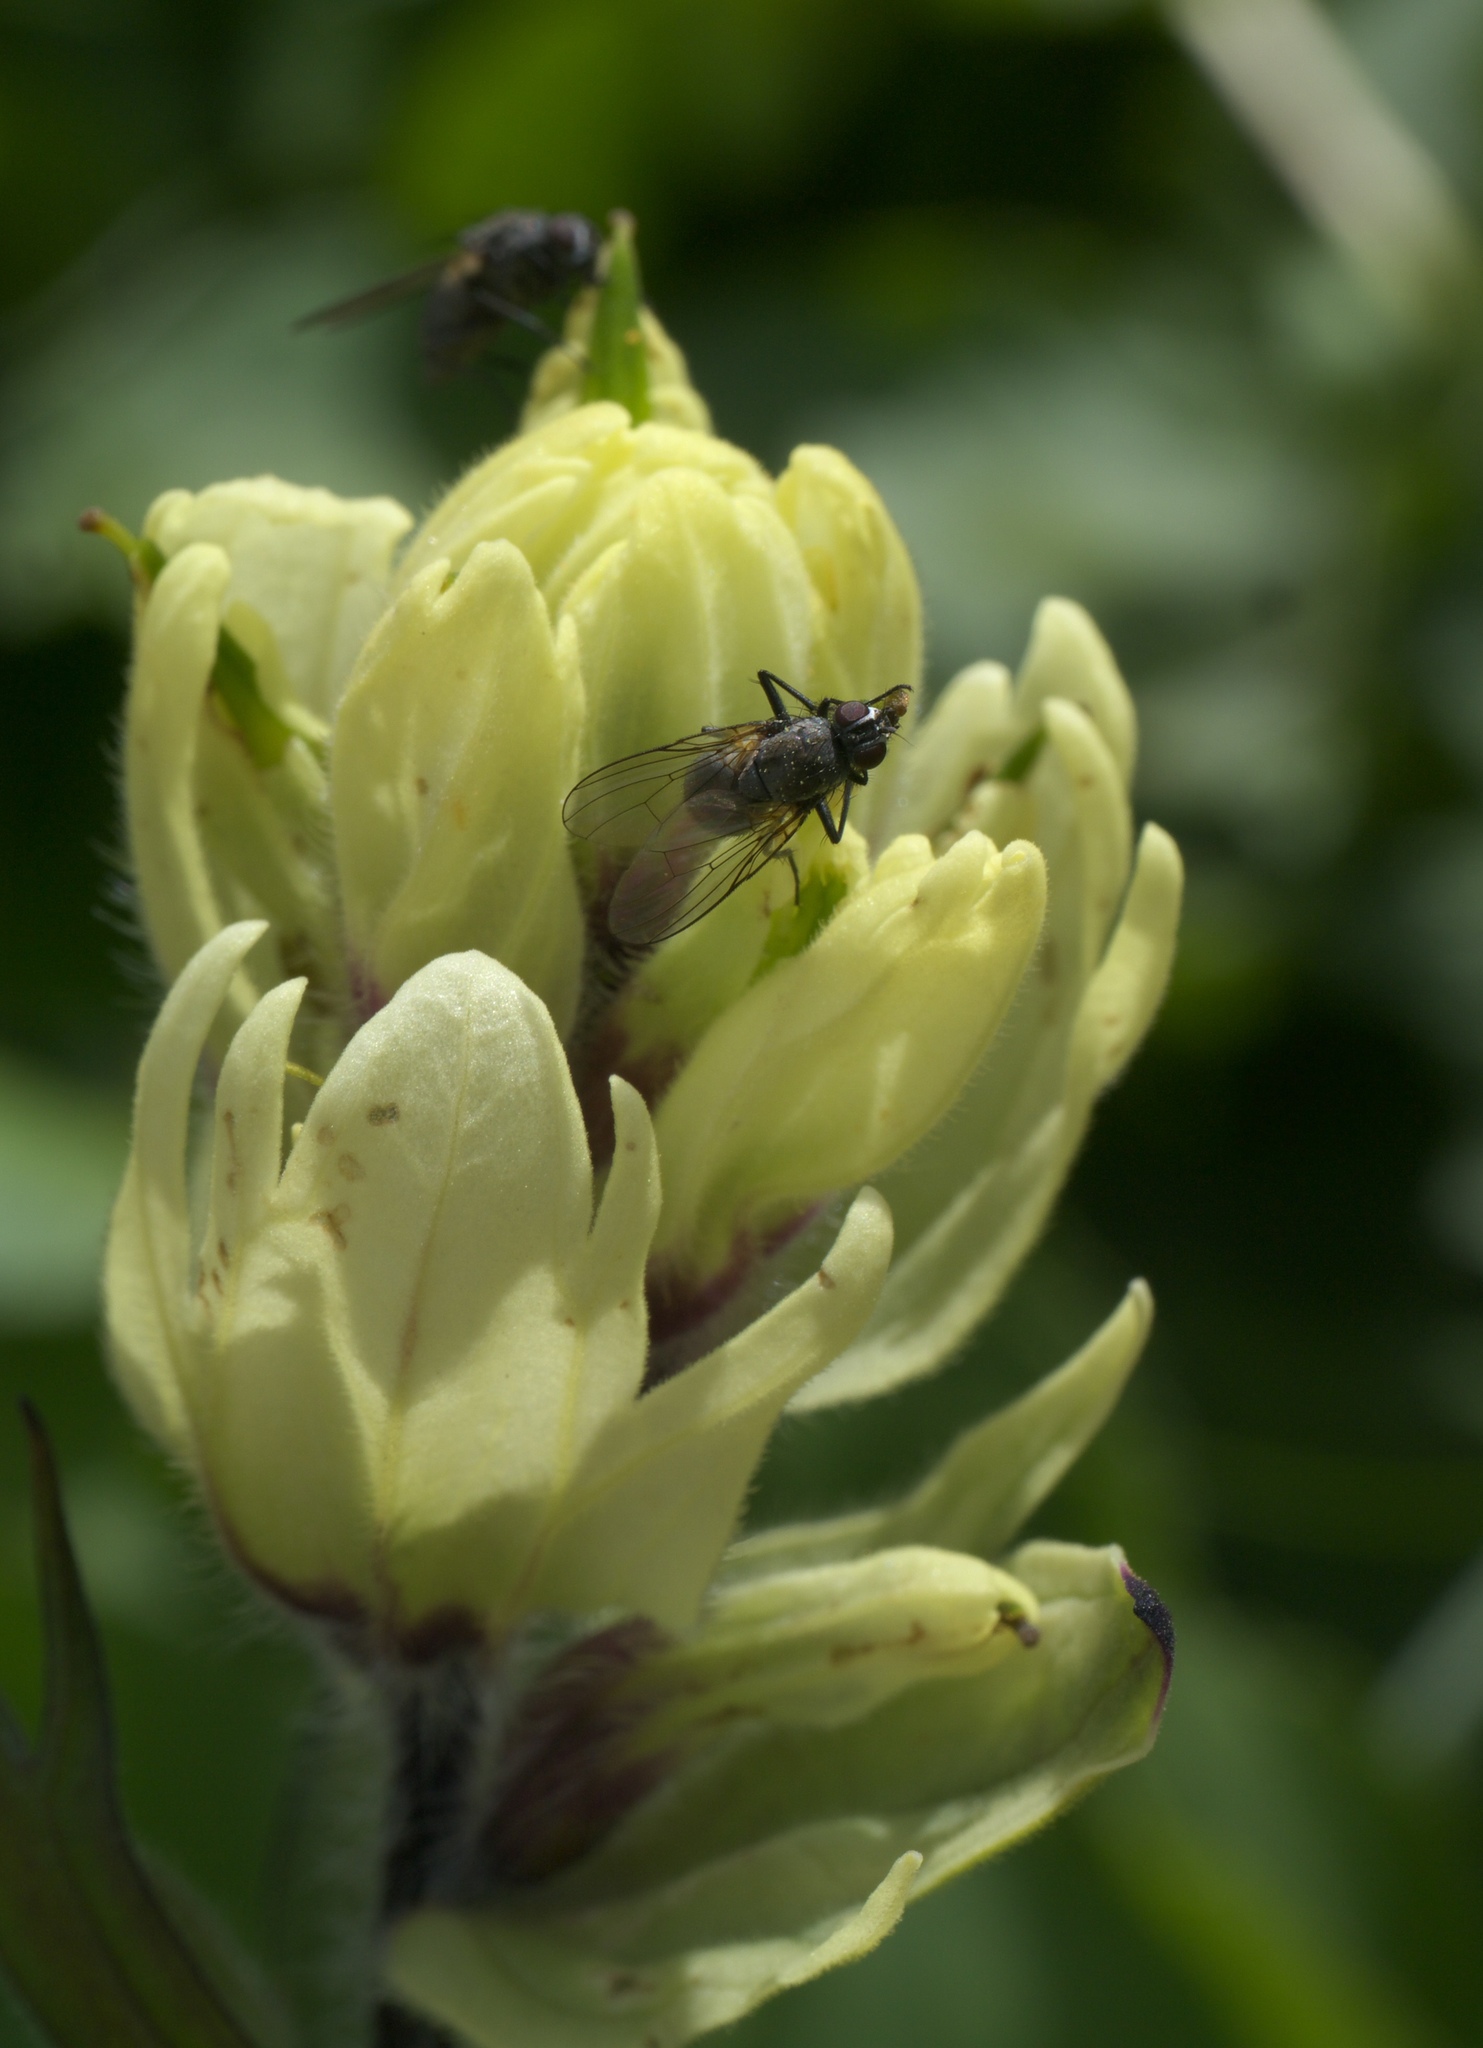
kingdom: Plantae
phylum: Tracheophyta
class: Magnoliopsida
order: Lamiales
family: Orobanchaceae
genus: Castilleja
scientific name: Castilleja occidentalis
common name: Western paintbrush
